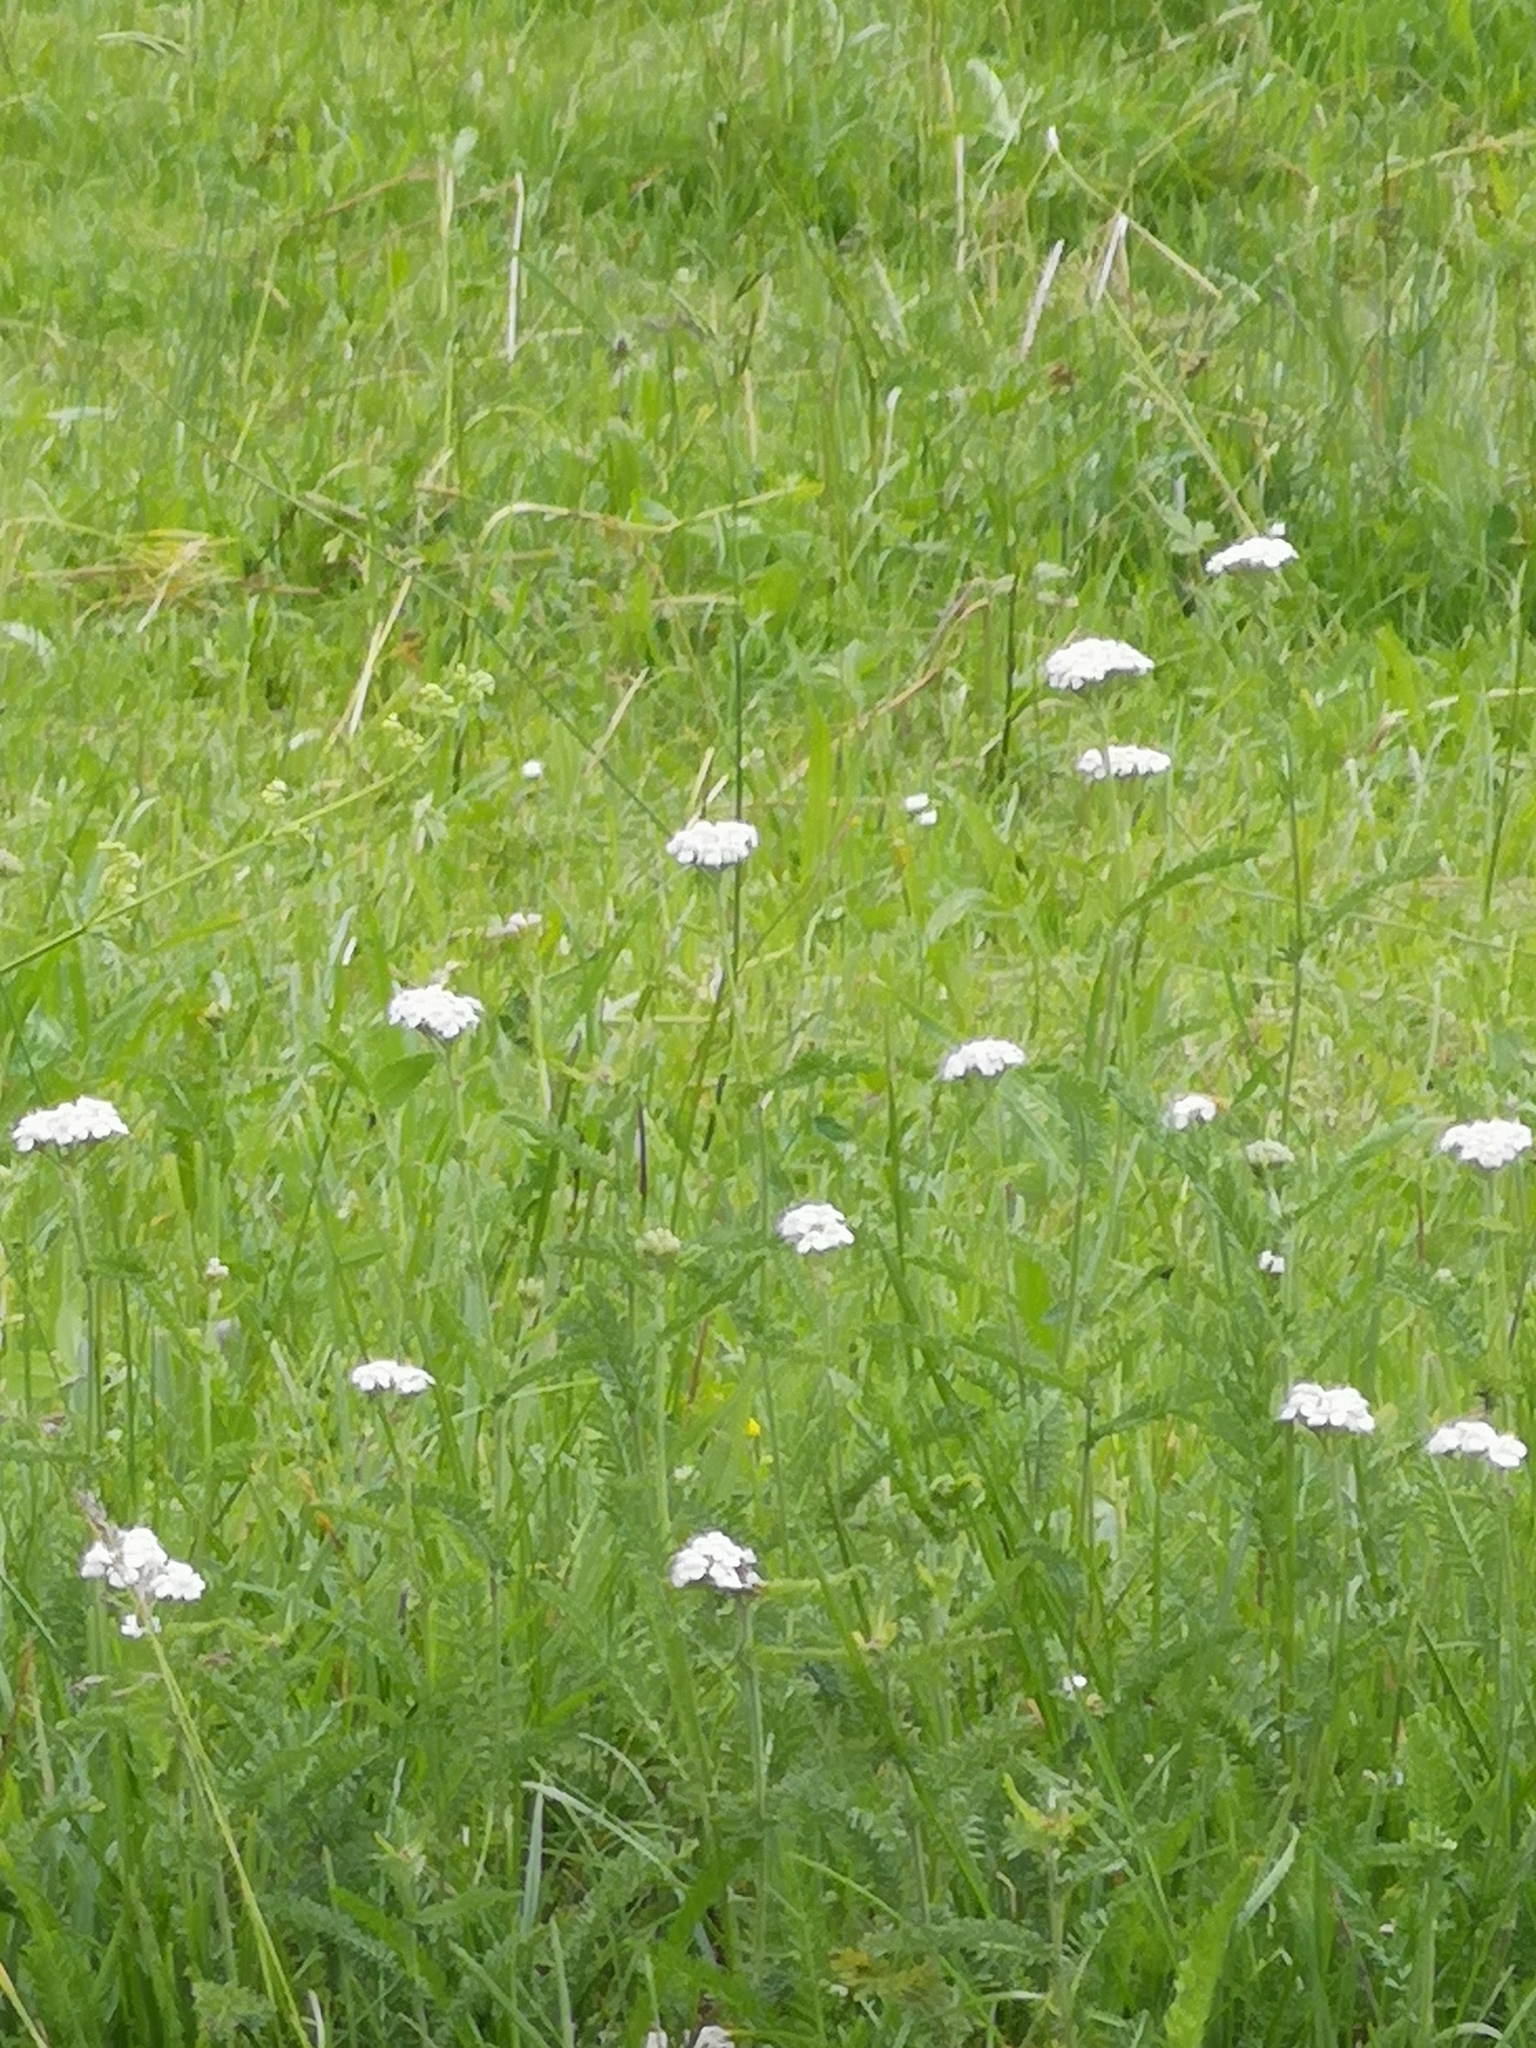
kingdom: Plantae
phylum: Tracheophyta
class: Magnoliopsida
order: Asterales
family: Asteraceae
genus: Achillea
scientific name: Achillea millefolium
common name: Yarrow
